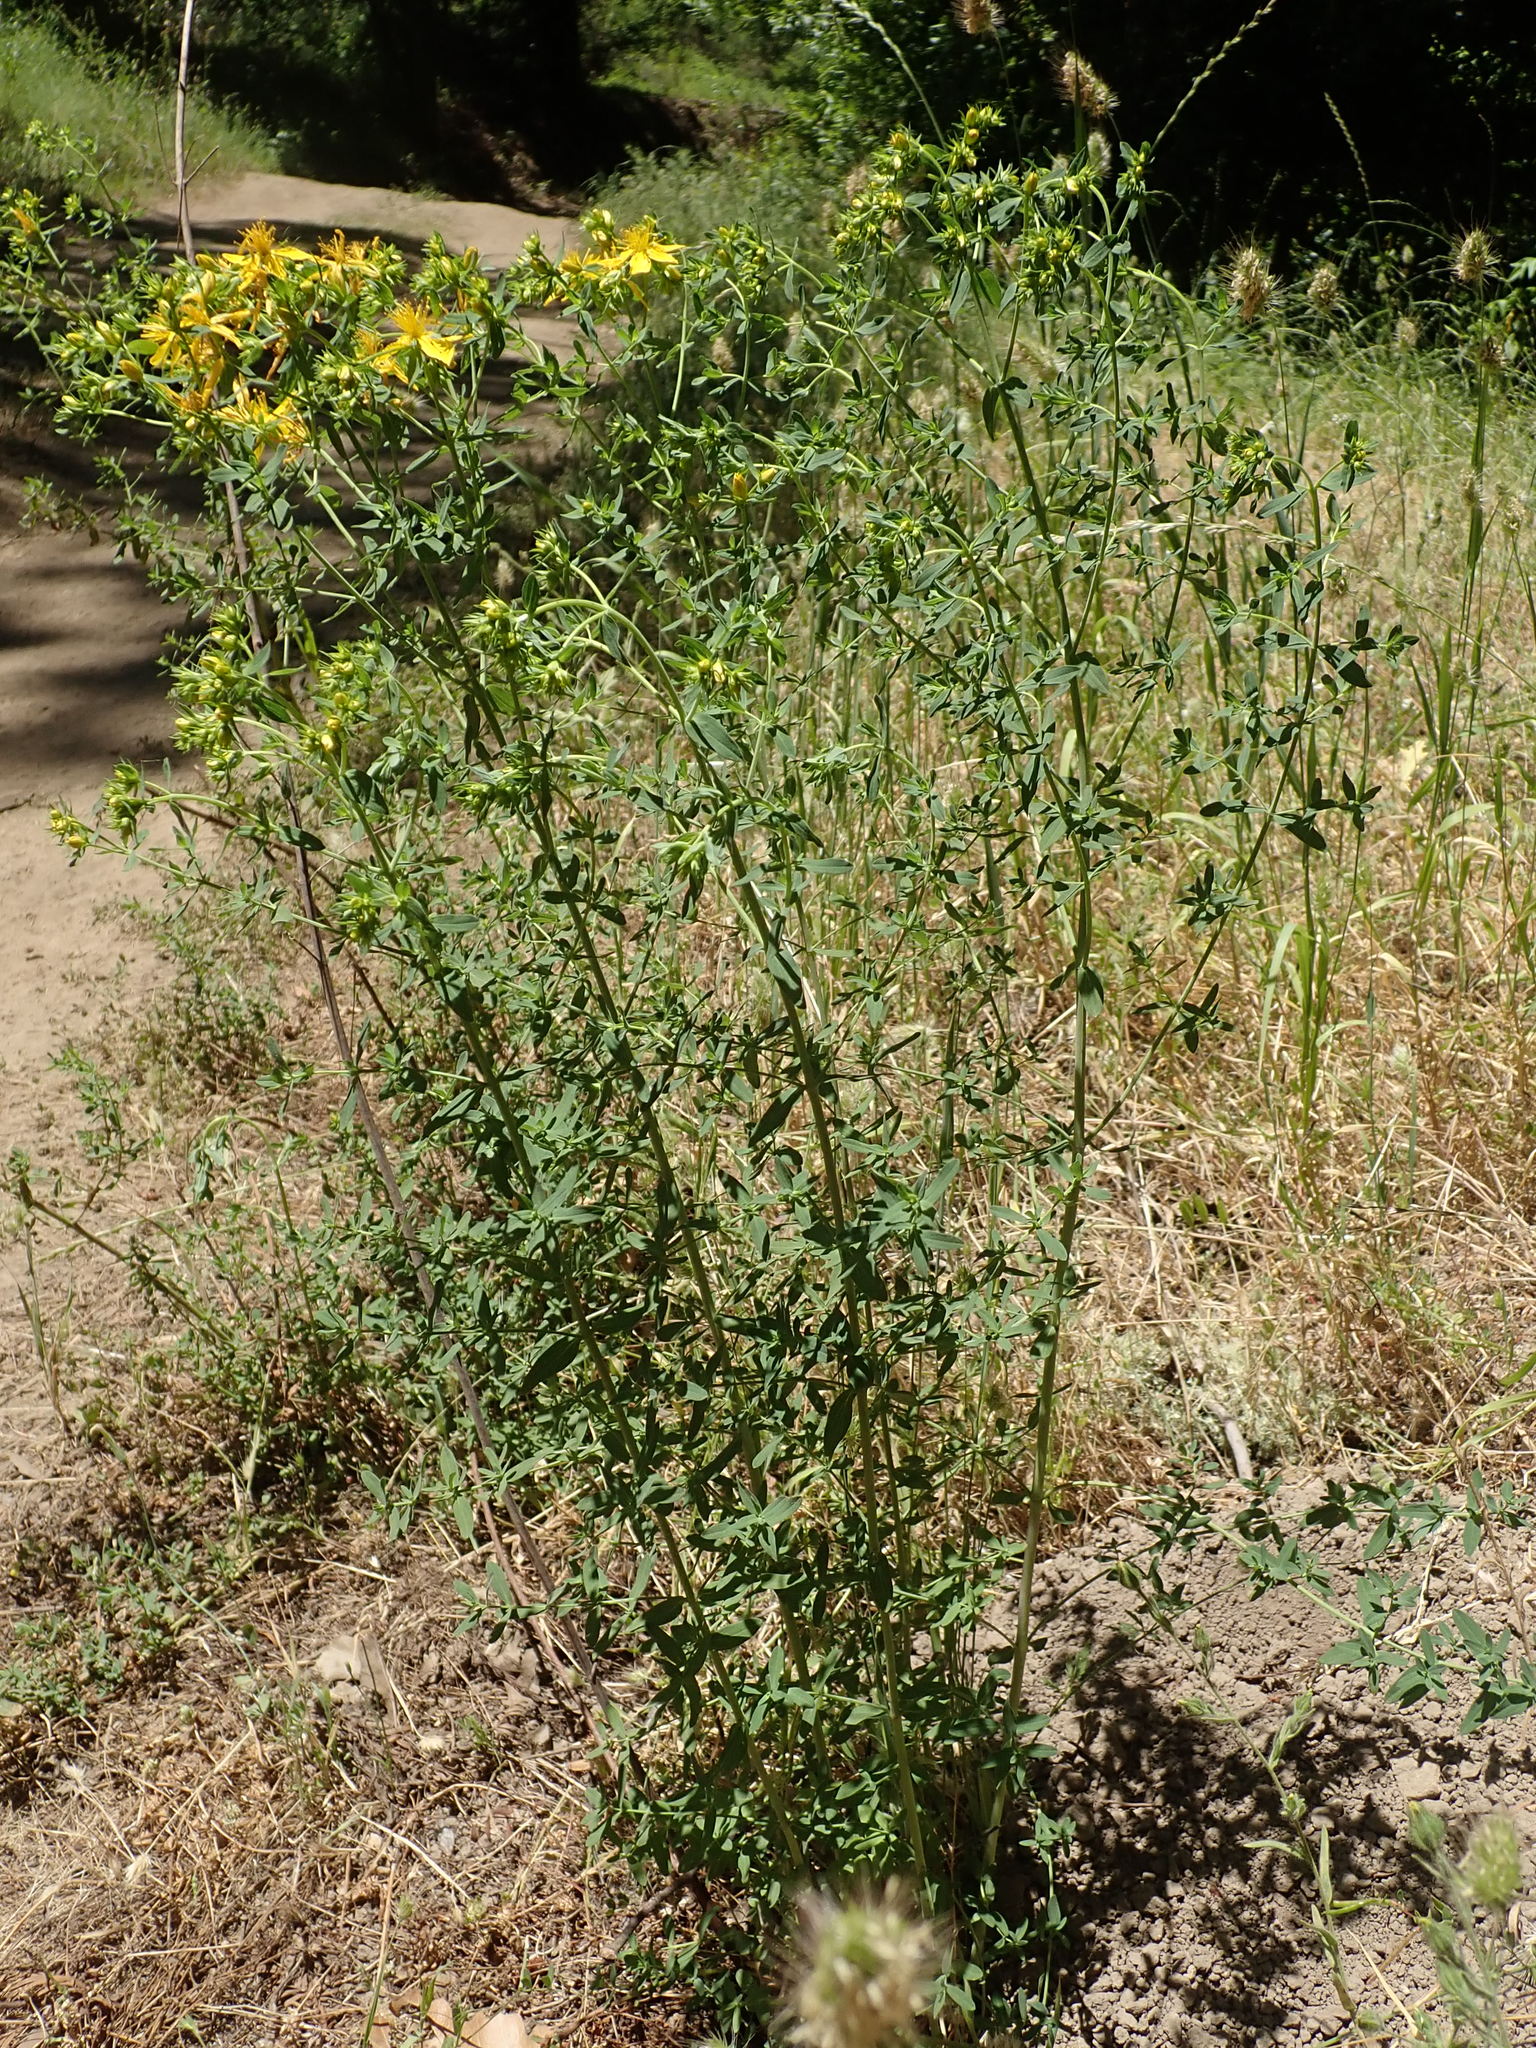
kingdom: Plantae
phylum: Tracheophyta
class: Magnoliopsida
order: Malpighiales
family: Hypericaceae
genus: Hypericum
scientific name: Hypericum perforatum
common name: Common st. johnswort
